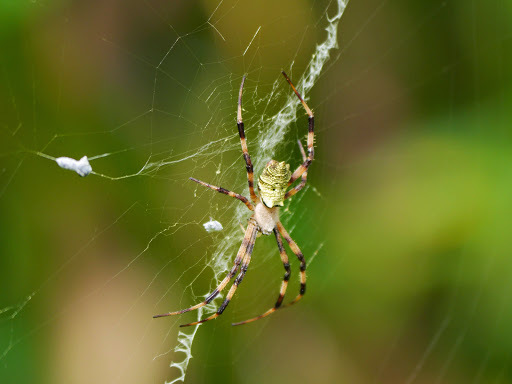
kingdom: Animalia
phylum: Arthropoda
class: Arachnida
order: Araneae
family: Araneidae
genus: Argiope
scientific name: Argiope flavipalpis
